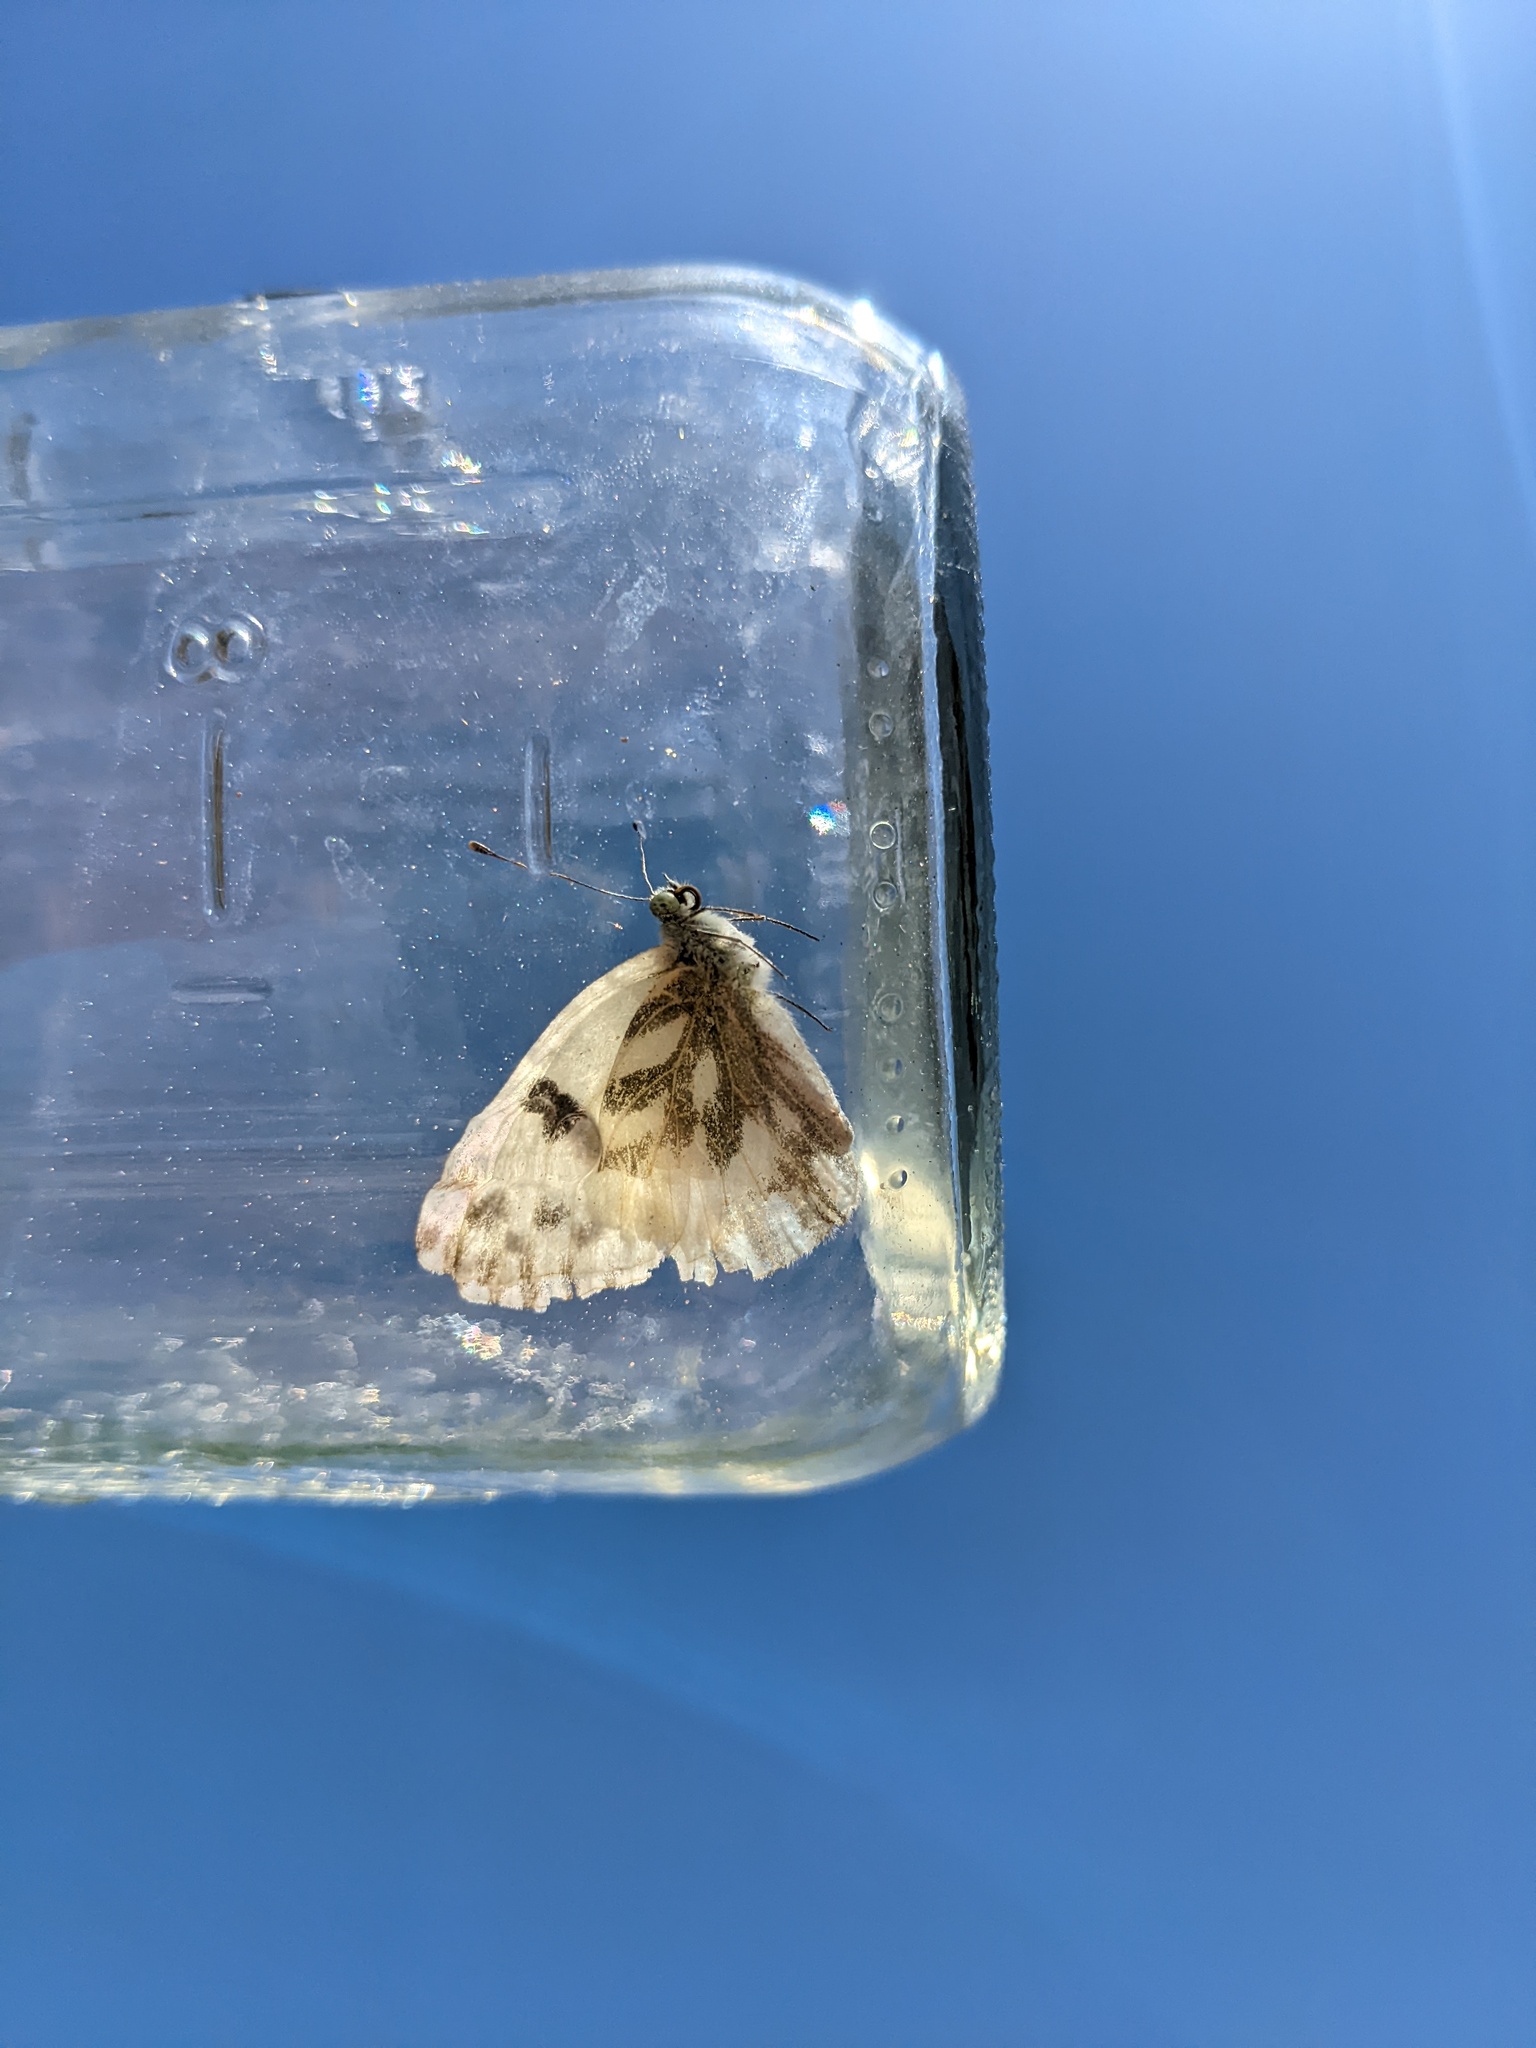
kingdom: Animalia
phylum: Arthropoda
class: Insecta
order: Lepidoptera
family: Pieridae
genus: Pontia
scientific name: Pontia beckerii
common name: Becker's white
